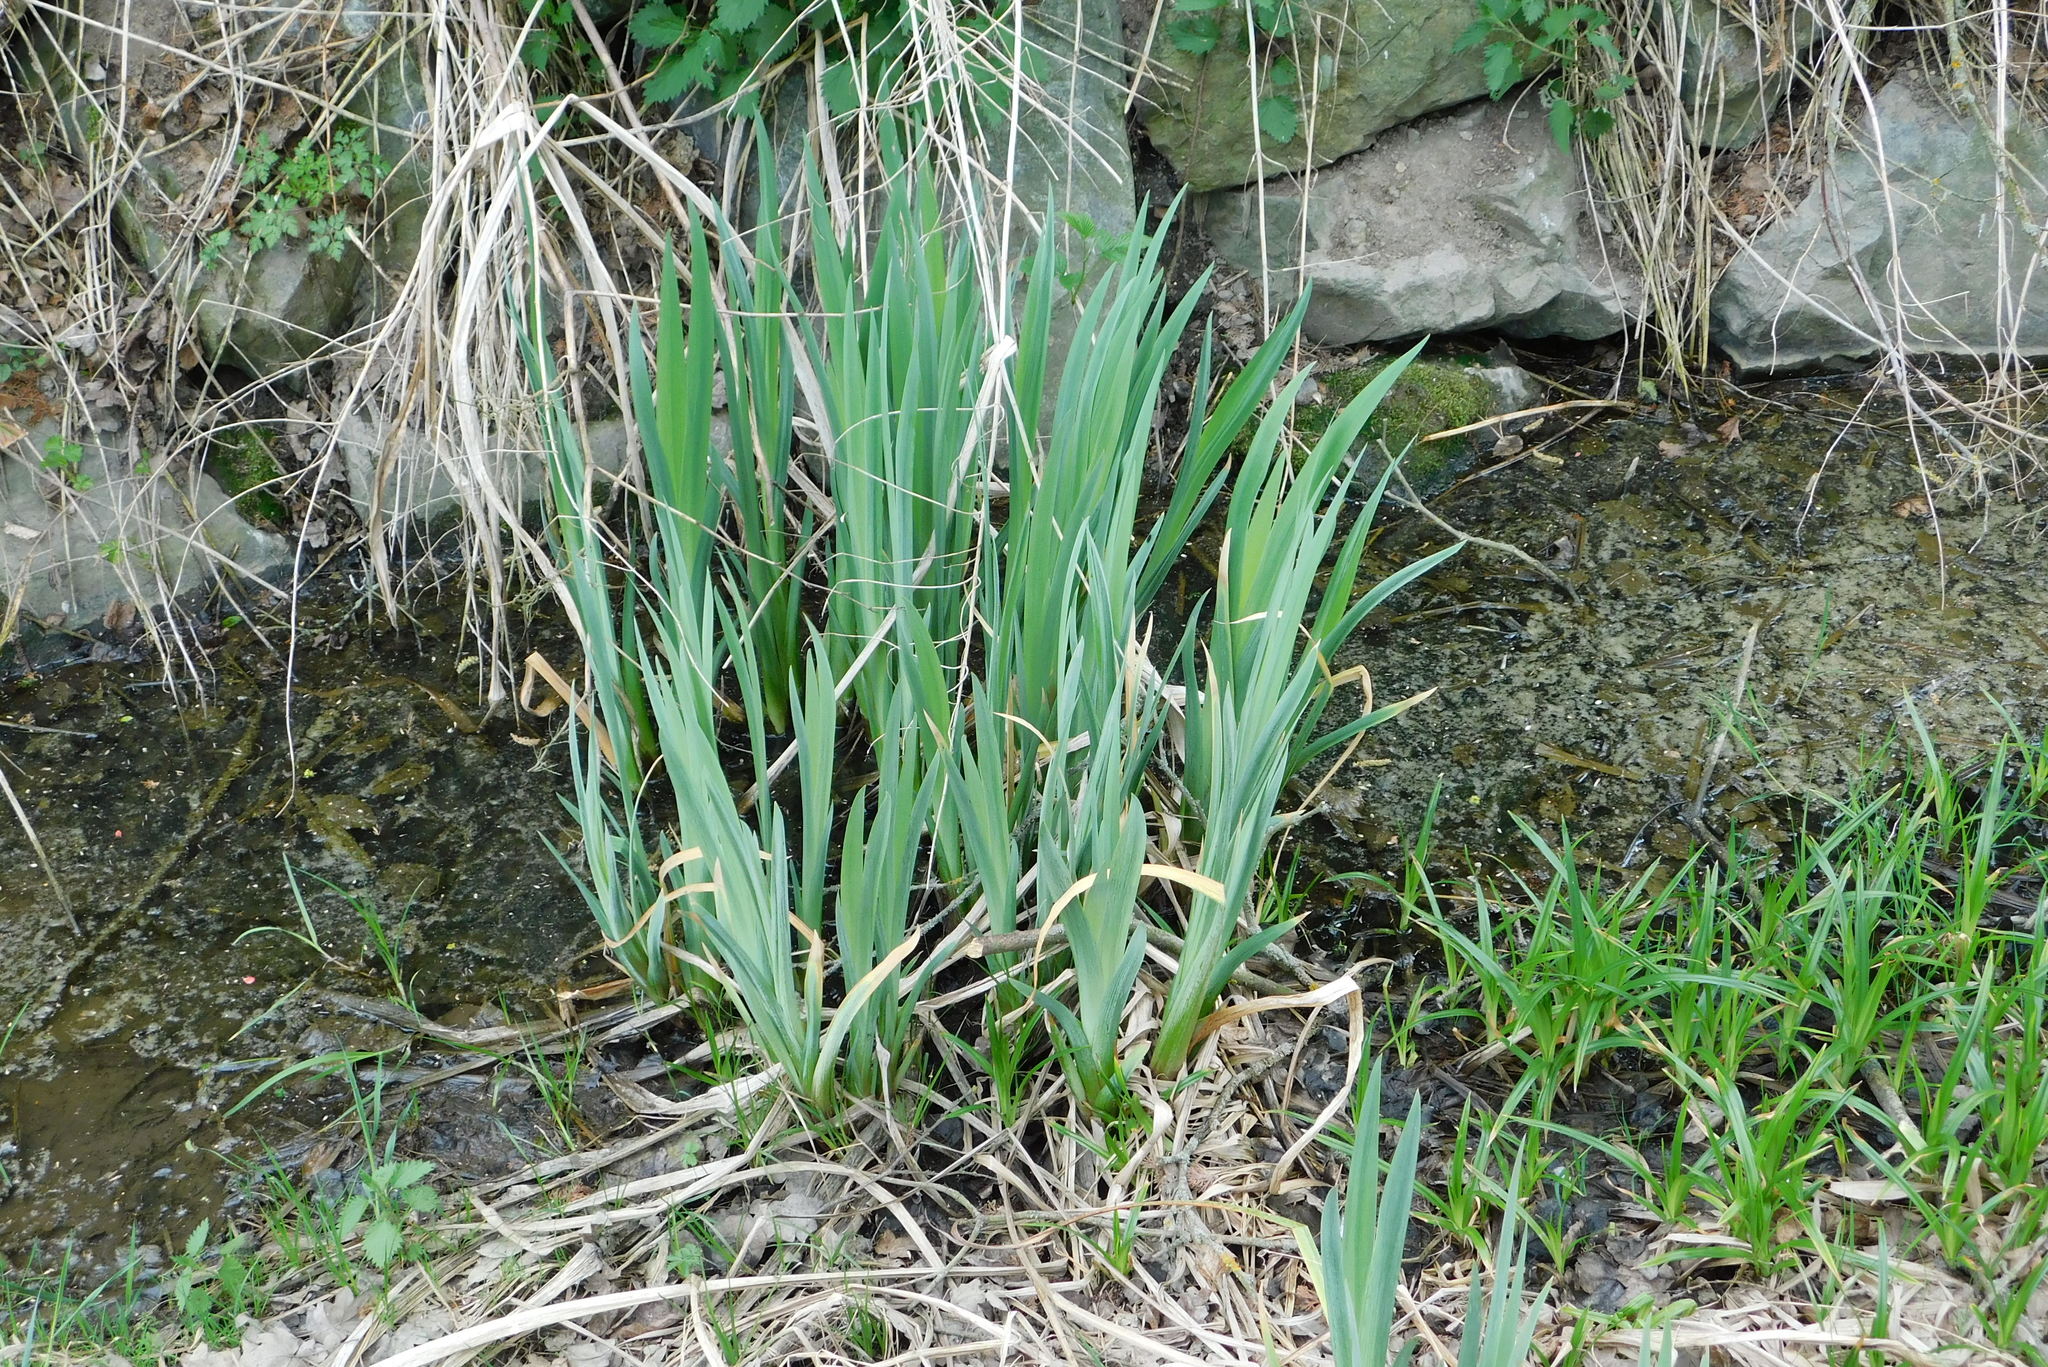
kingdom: Plantae
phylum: Tracheophyta
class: Liliopsida
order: Asparagales
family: Iridaceae
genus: Iris
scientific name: Iris pseudacorus
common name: Yellow flag
